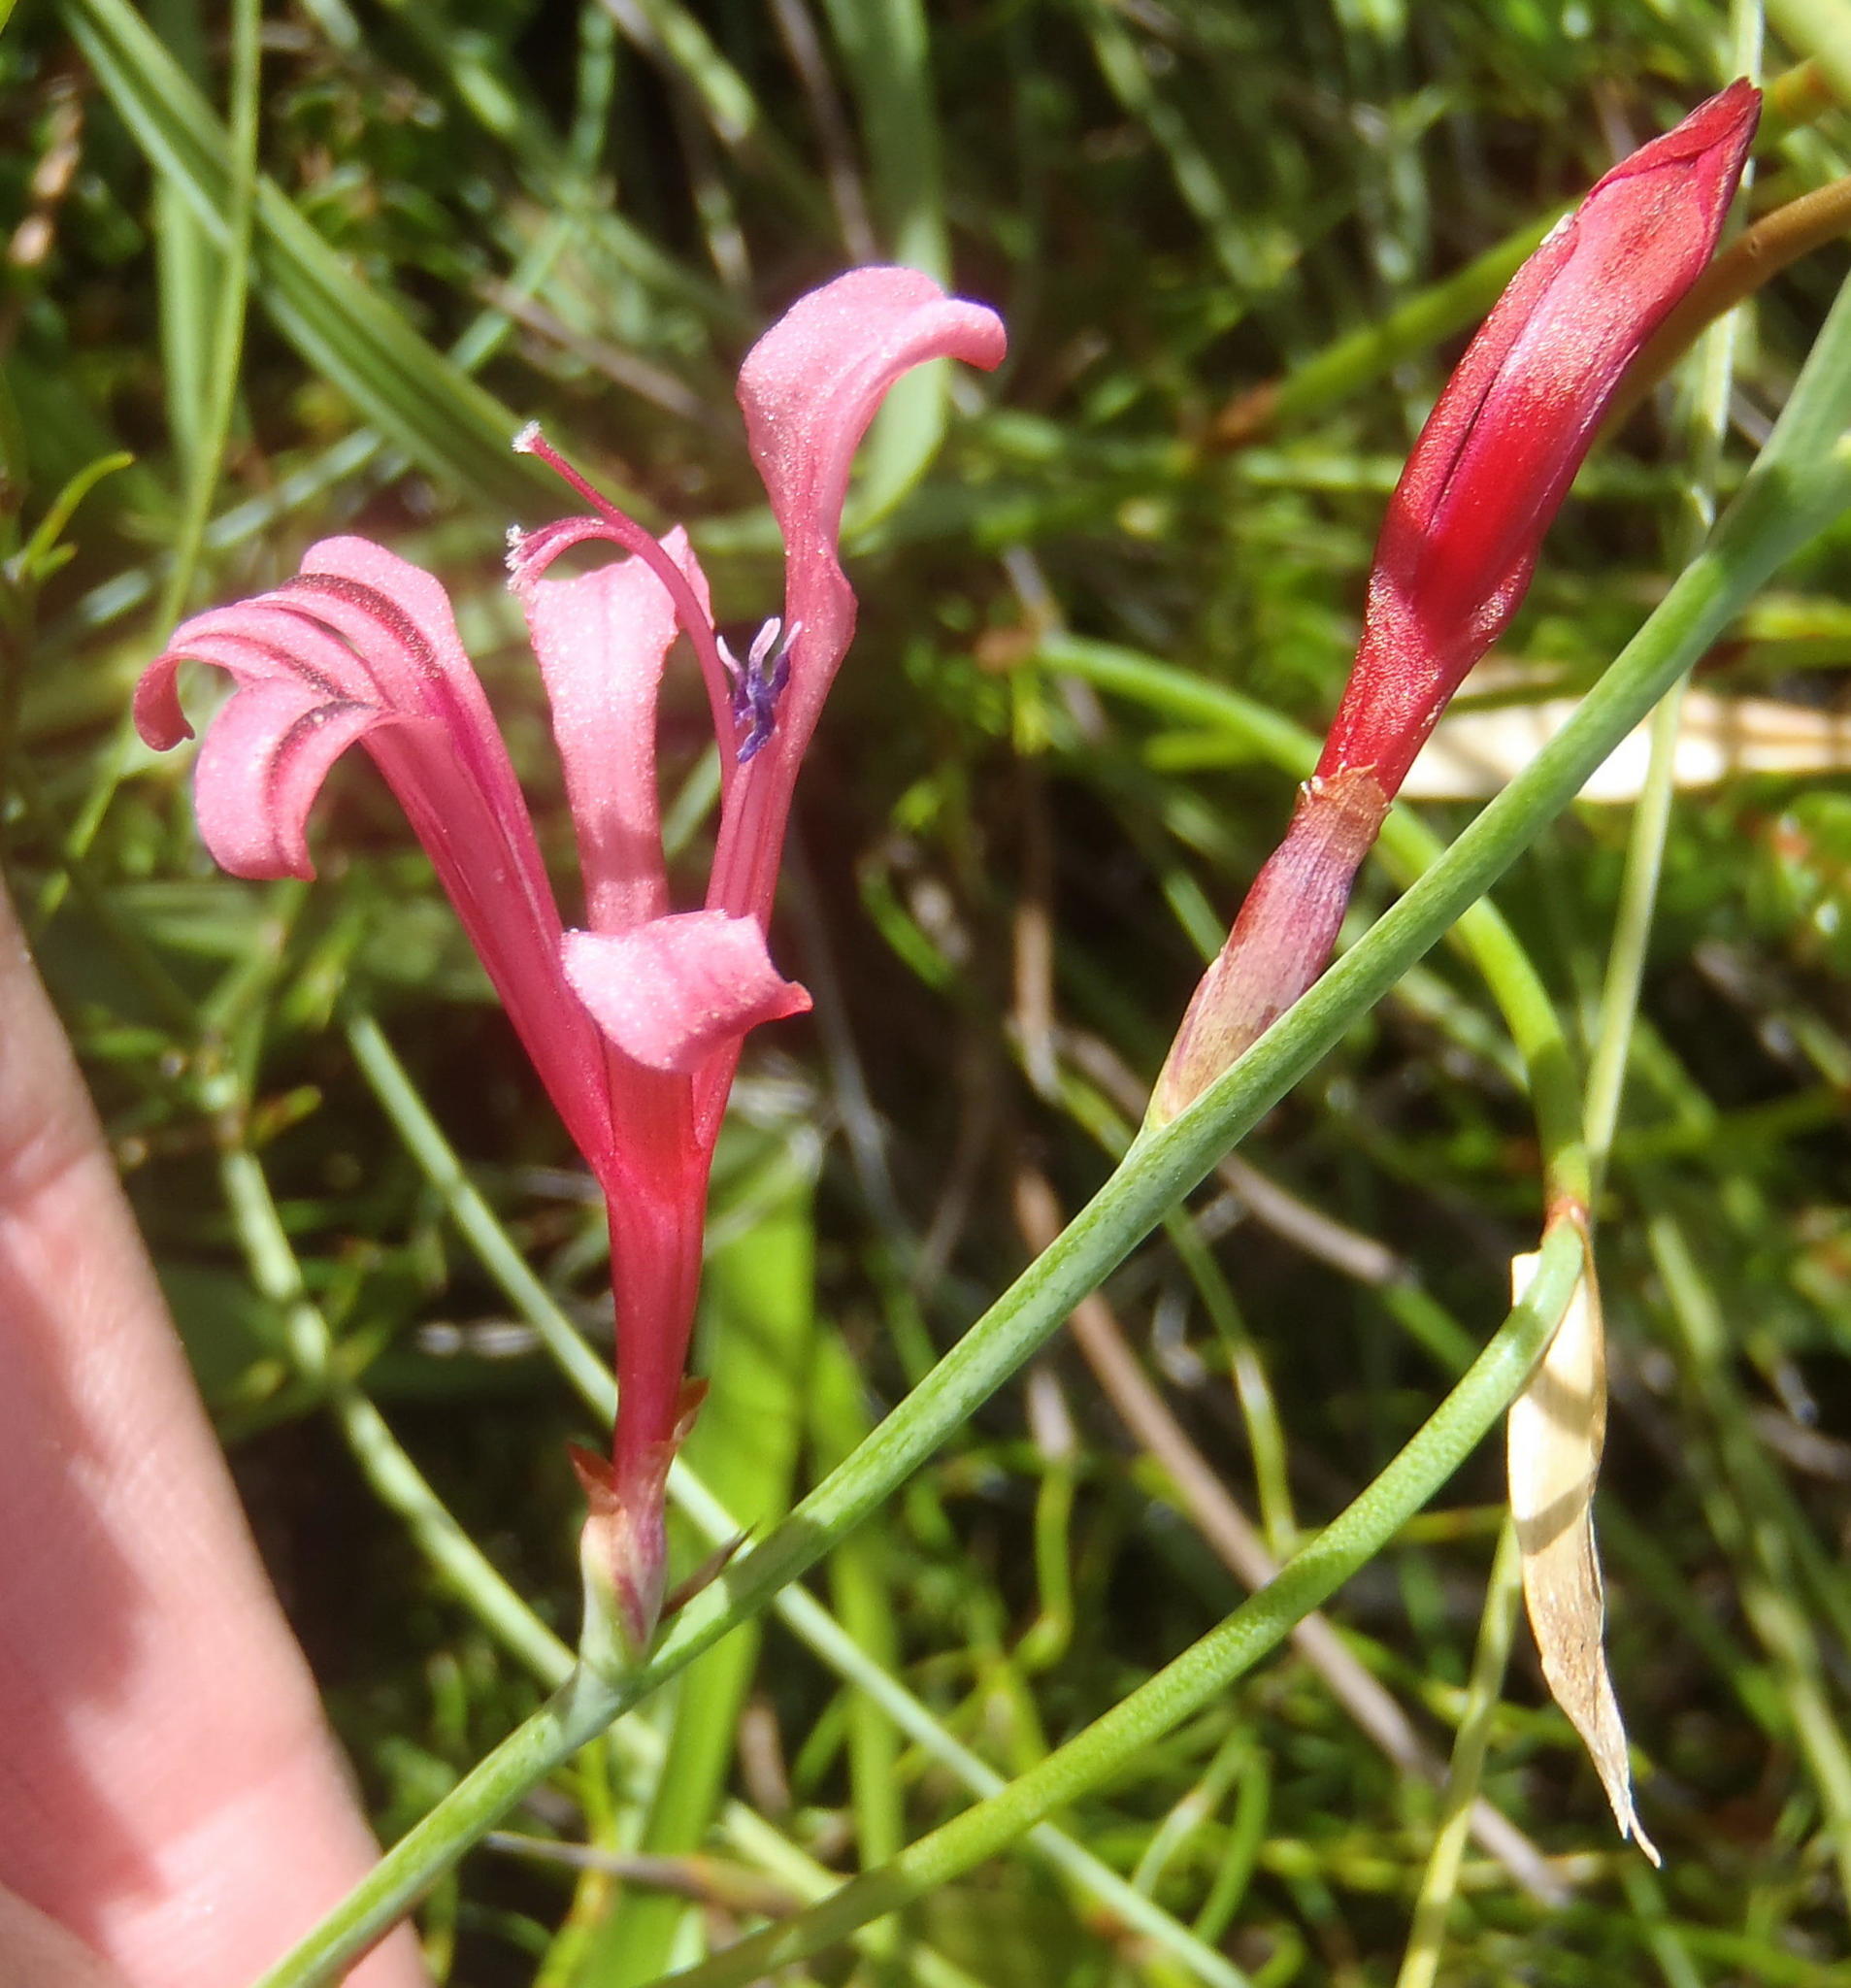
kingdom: Plantae
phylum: Tracheophyta
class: Liliopsida
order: Asparagales
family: Iridaceae
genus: Tritoniopsis
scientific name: Tritoniopsis ramosa
